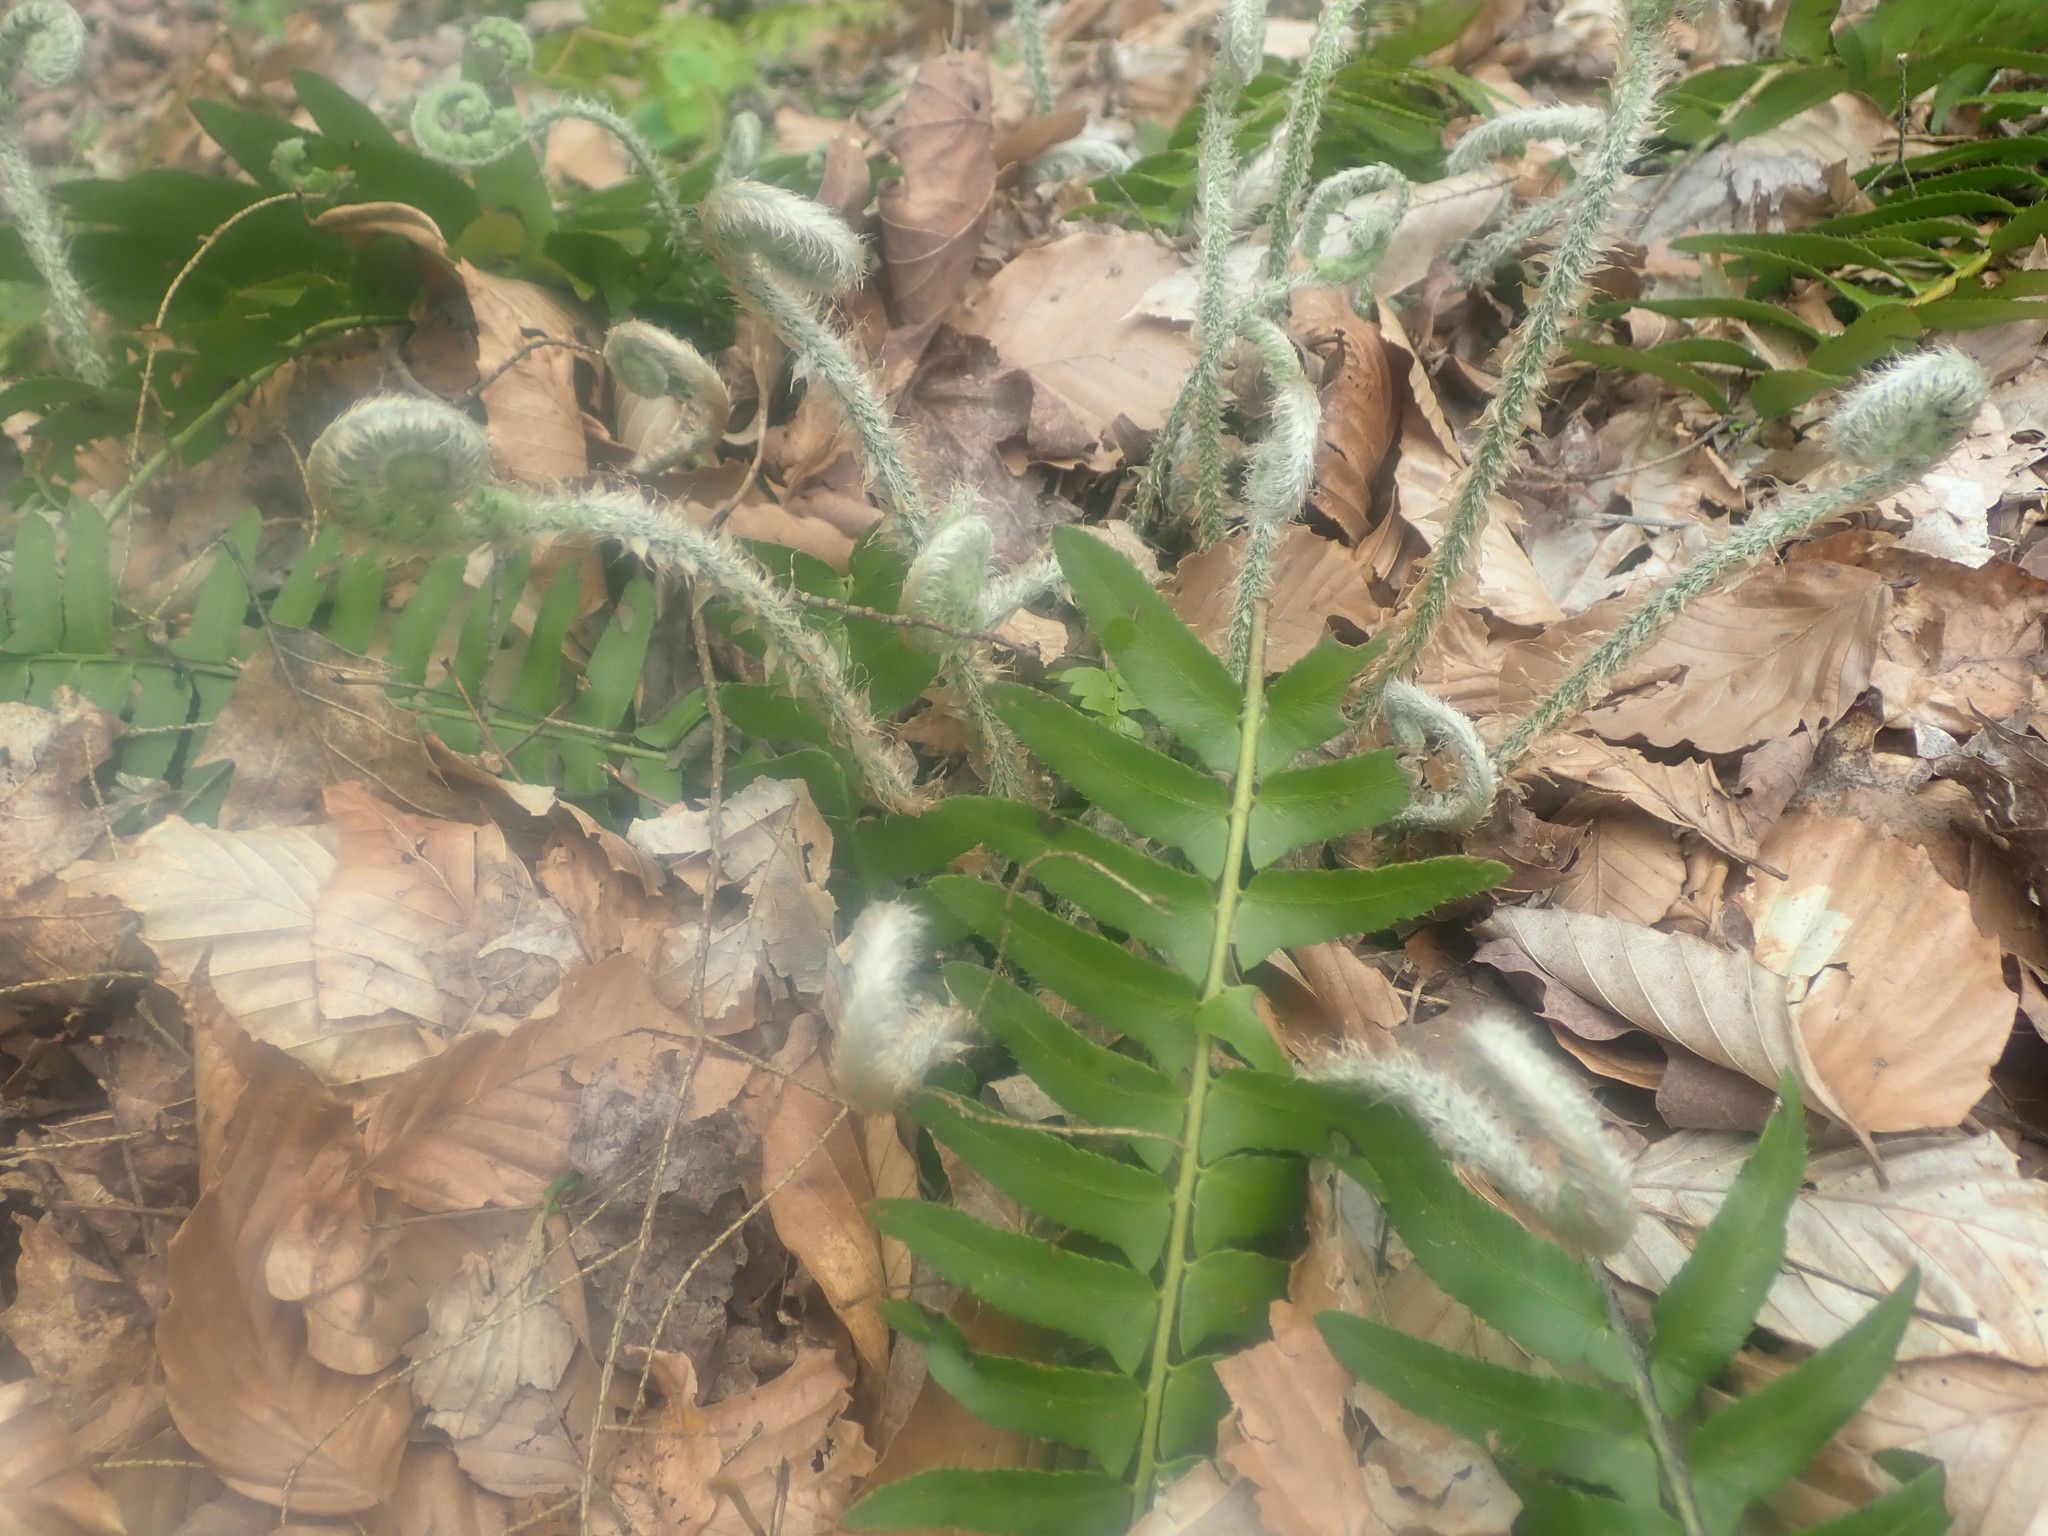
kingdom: Plantae
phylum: Tracheophyta
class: Polypodiopsida
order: Polypodiales
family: Dryopteridaceae
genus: Polystichum
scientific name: Polystichum acrostichoides
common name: Christmas fern
